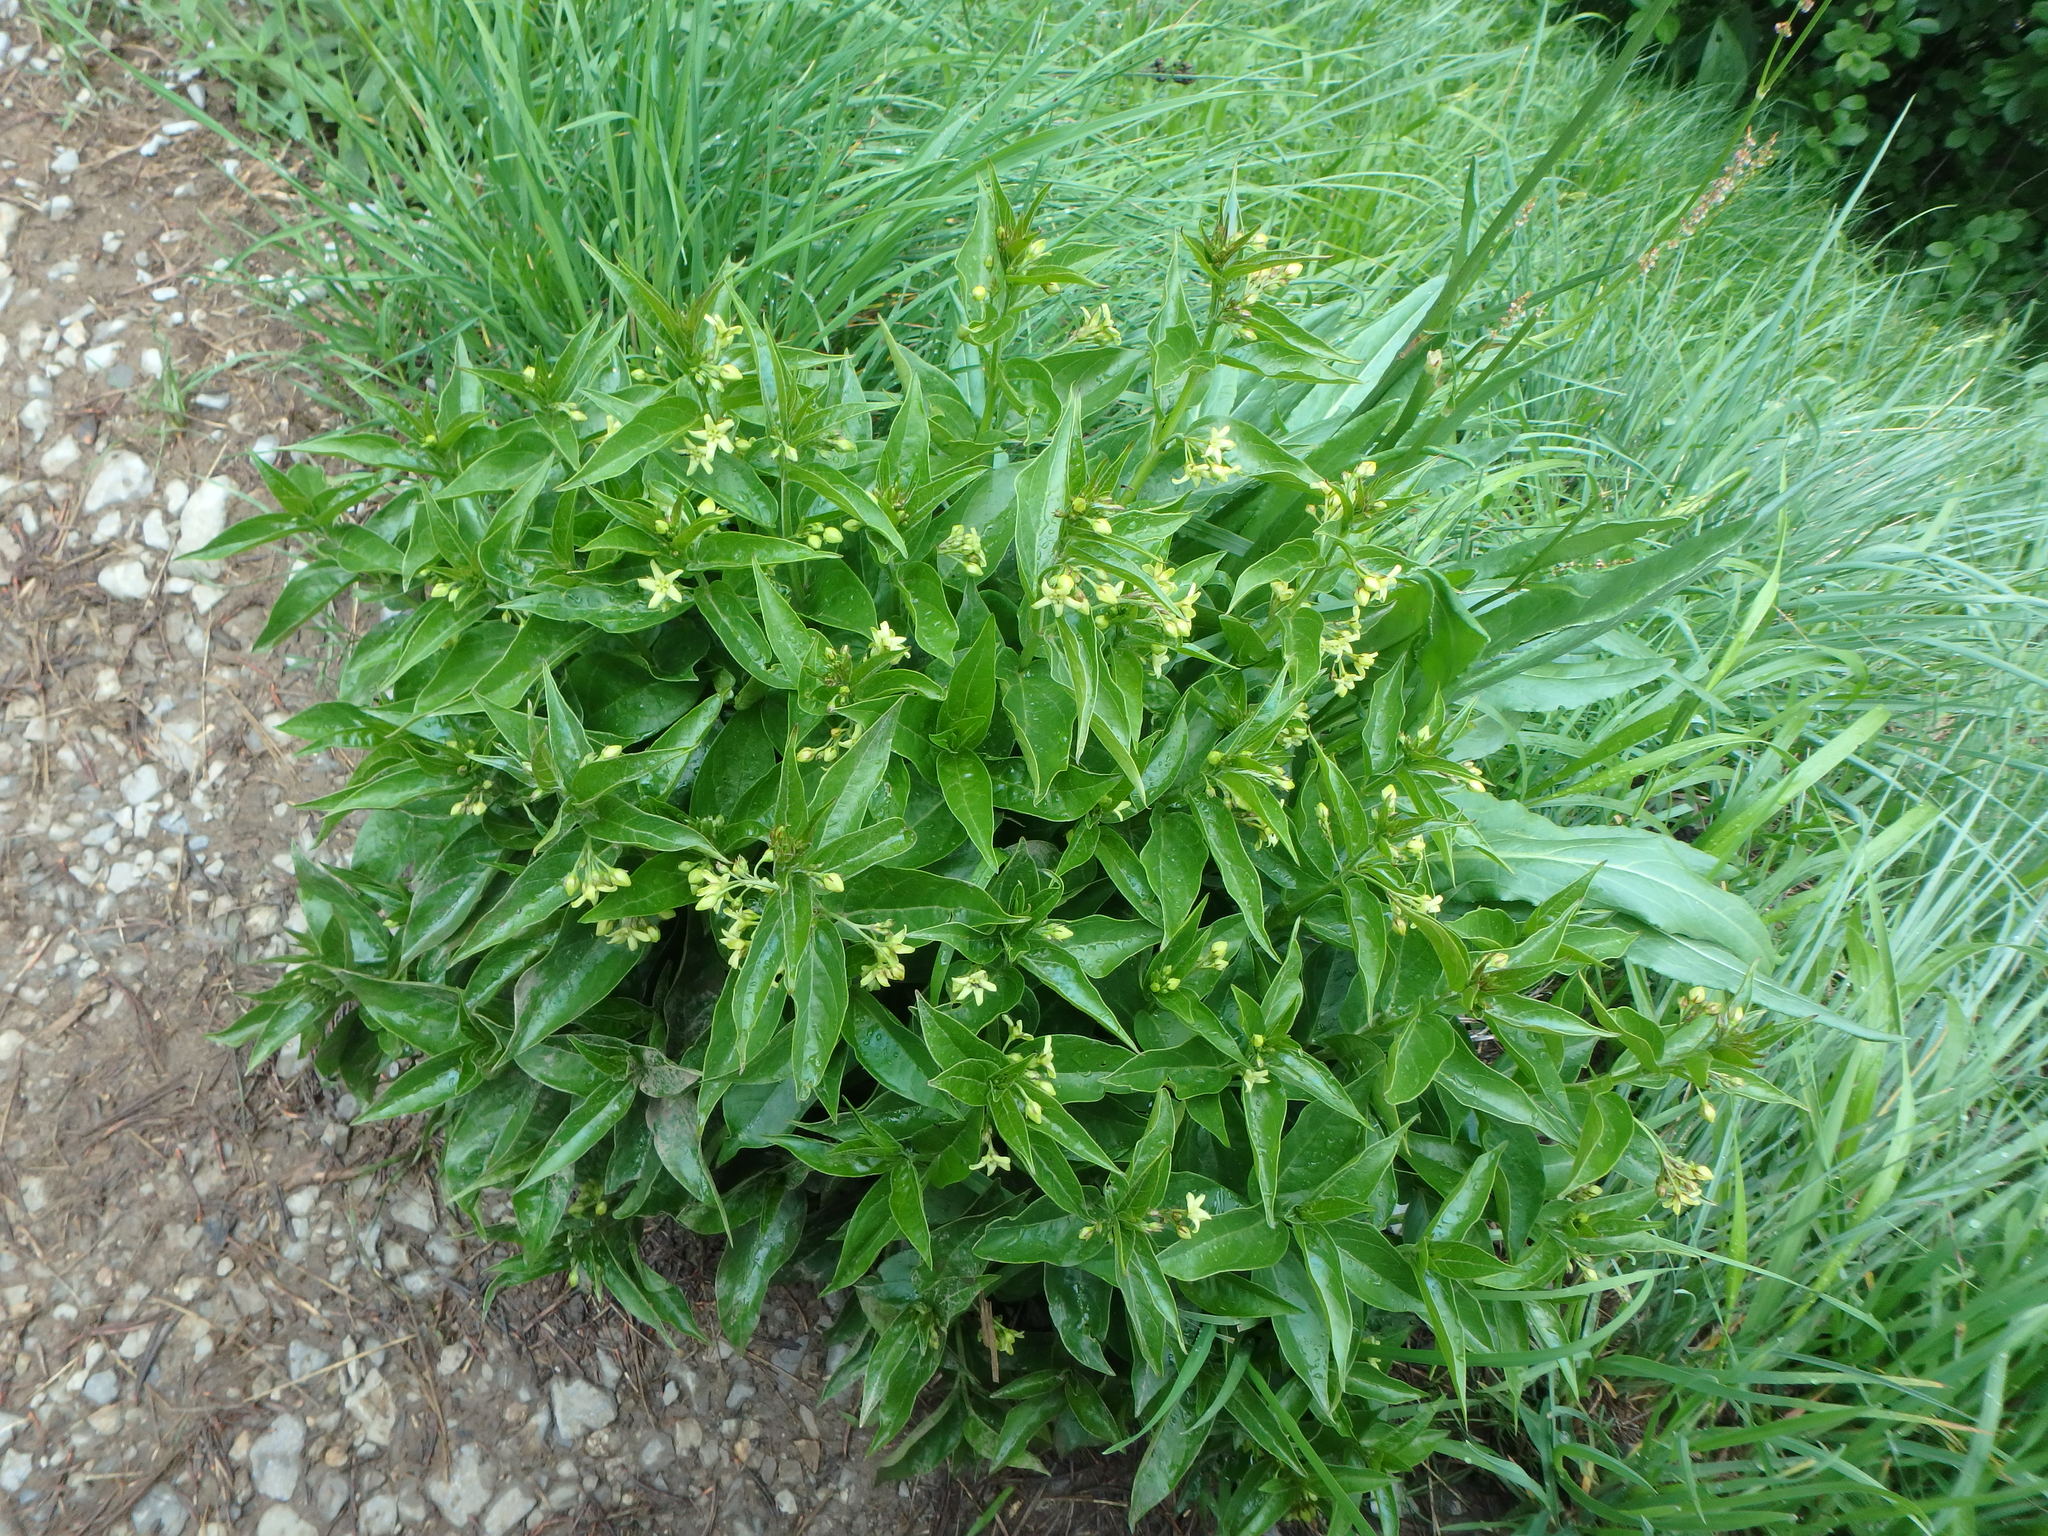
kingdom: Plantae
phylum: Tracheophyta
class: Magnoliopsida
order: Gentianales
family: Apocynaceae
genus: Vincetoxicum
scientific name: Vincetoxicum hirundinaria
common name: White swallowwort
